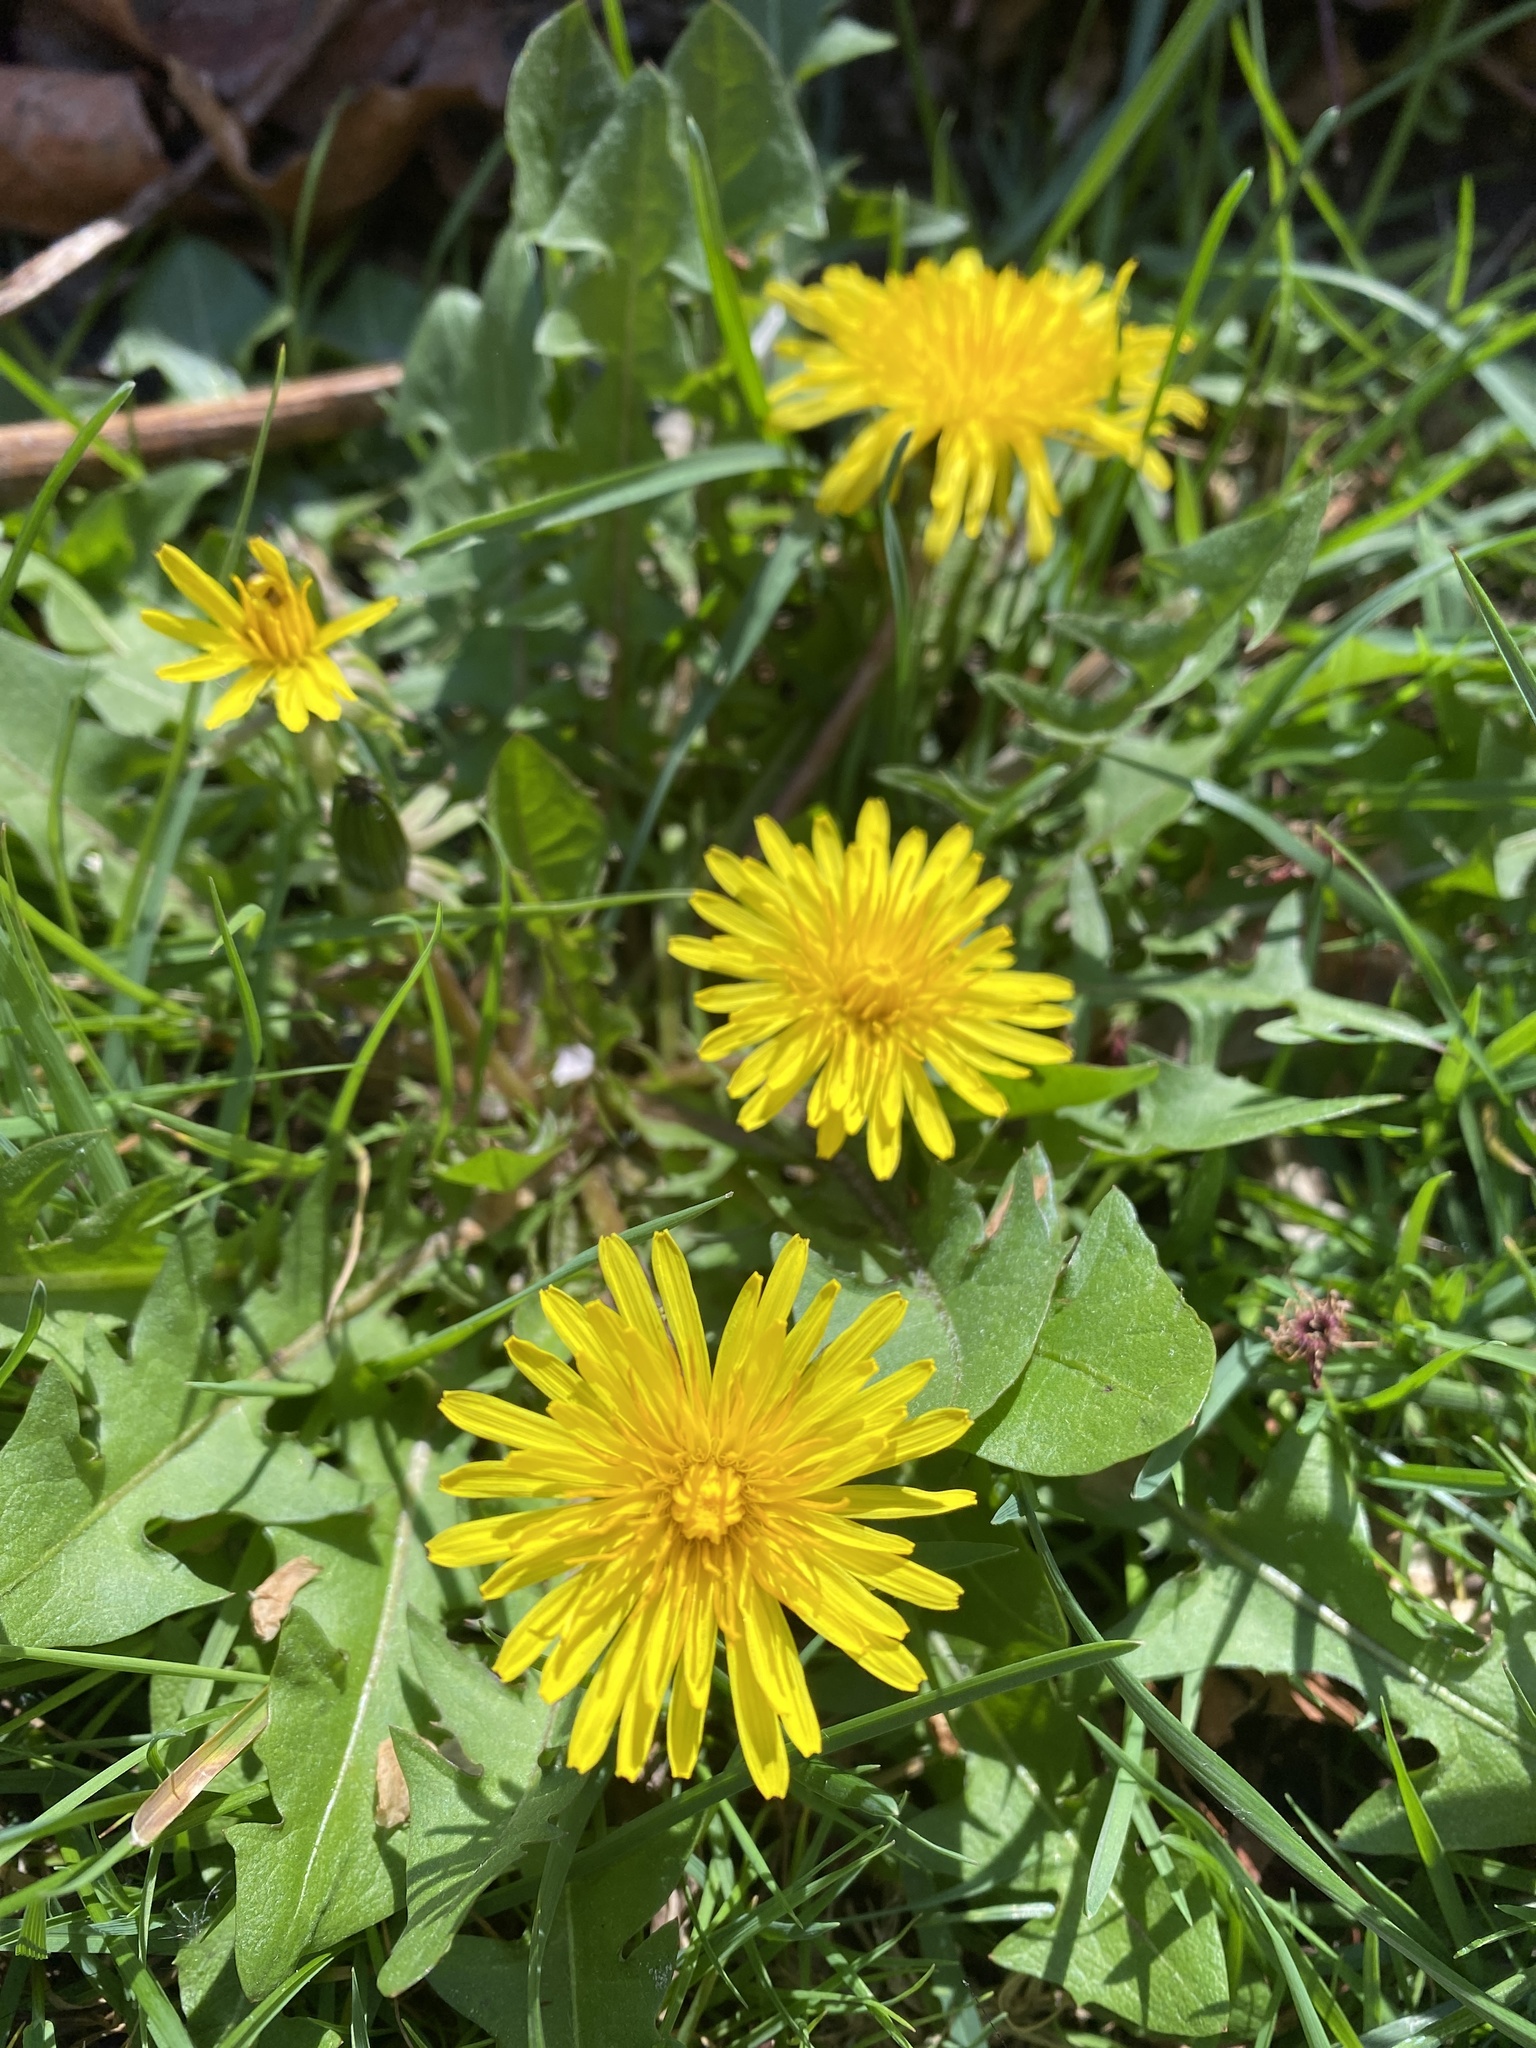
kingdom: Plantae
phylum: Tracheophyta
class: Magnoliopsida
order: Asterales
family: Asteraceae
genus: Taraxacum
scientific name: Taraxacum officinale
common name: Common dandelion
